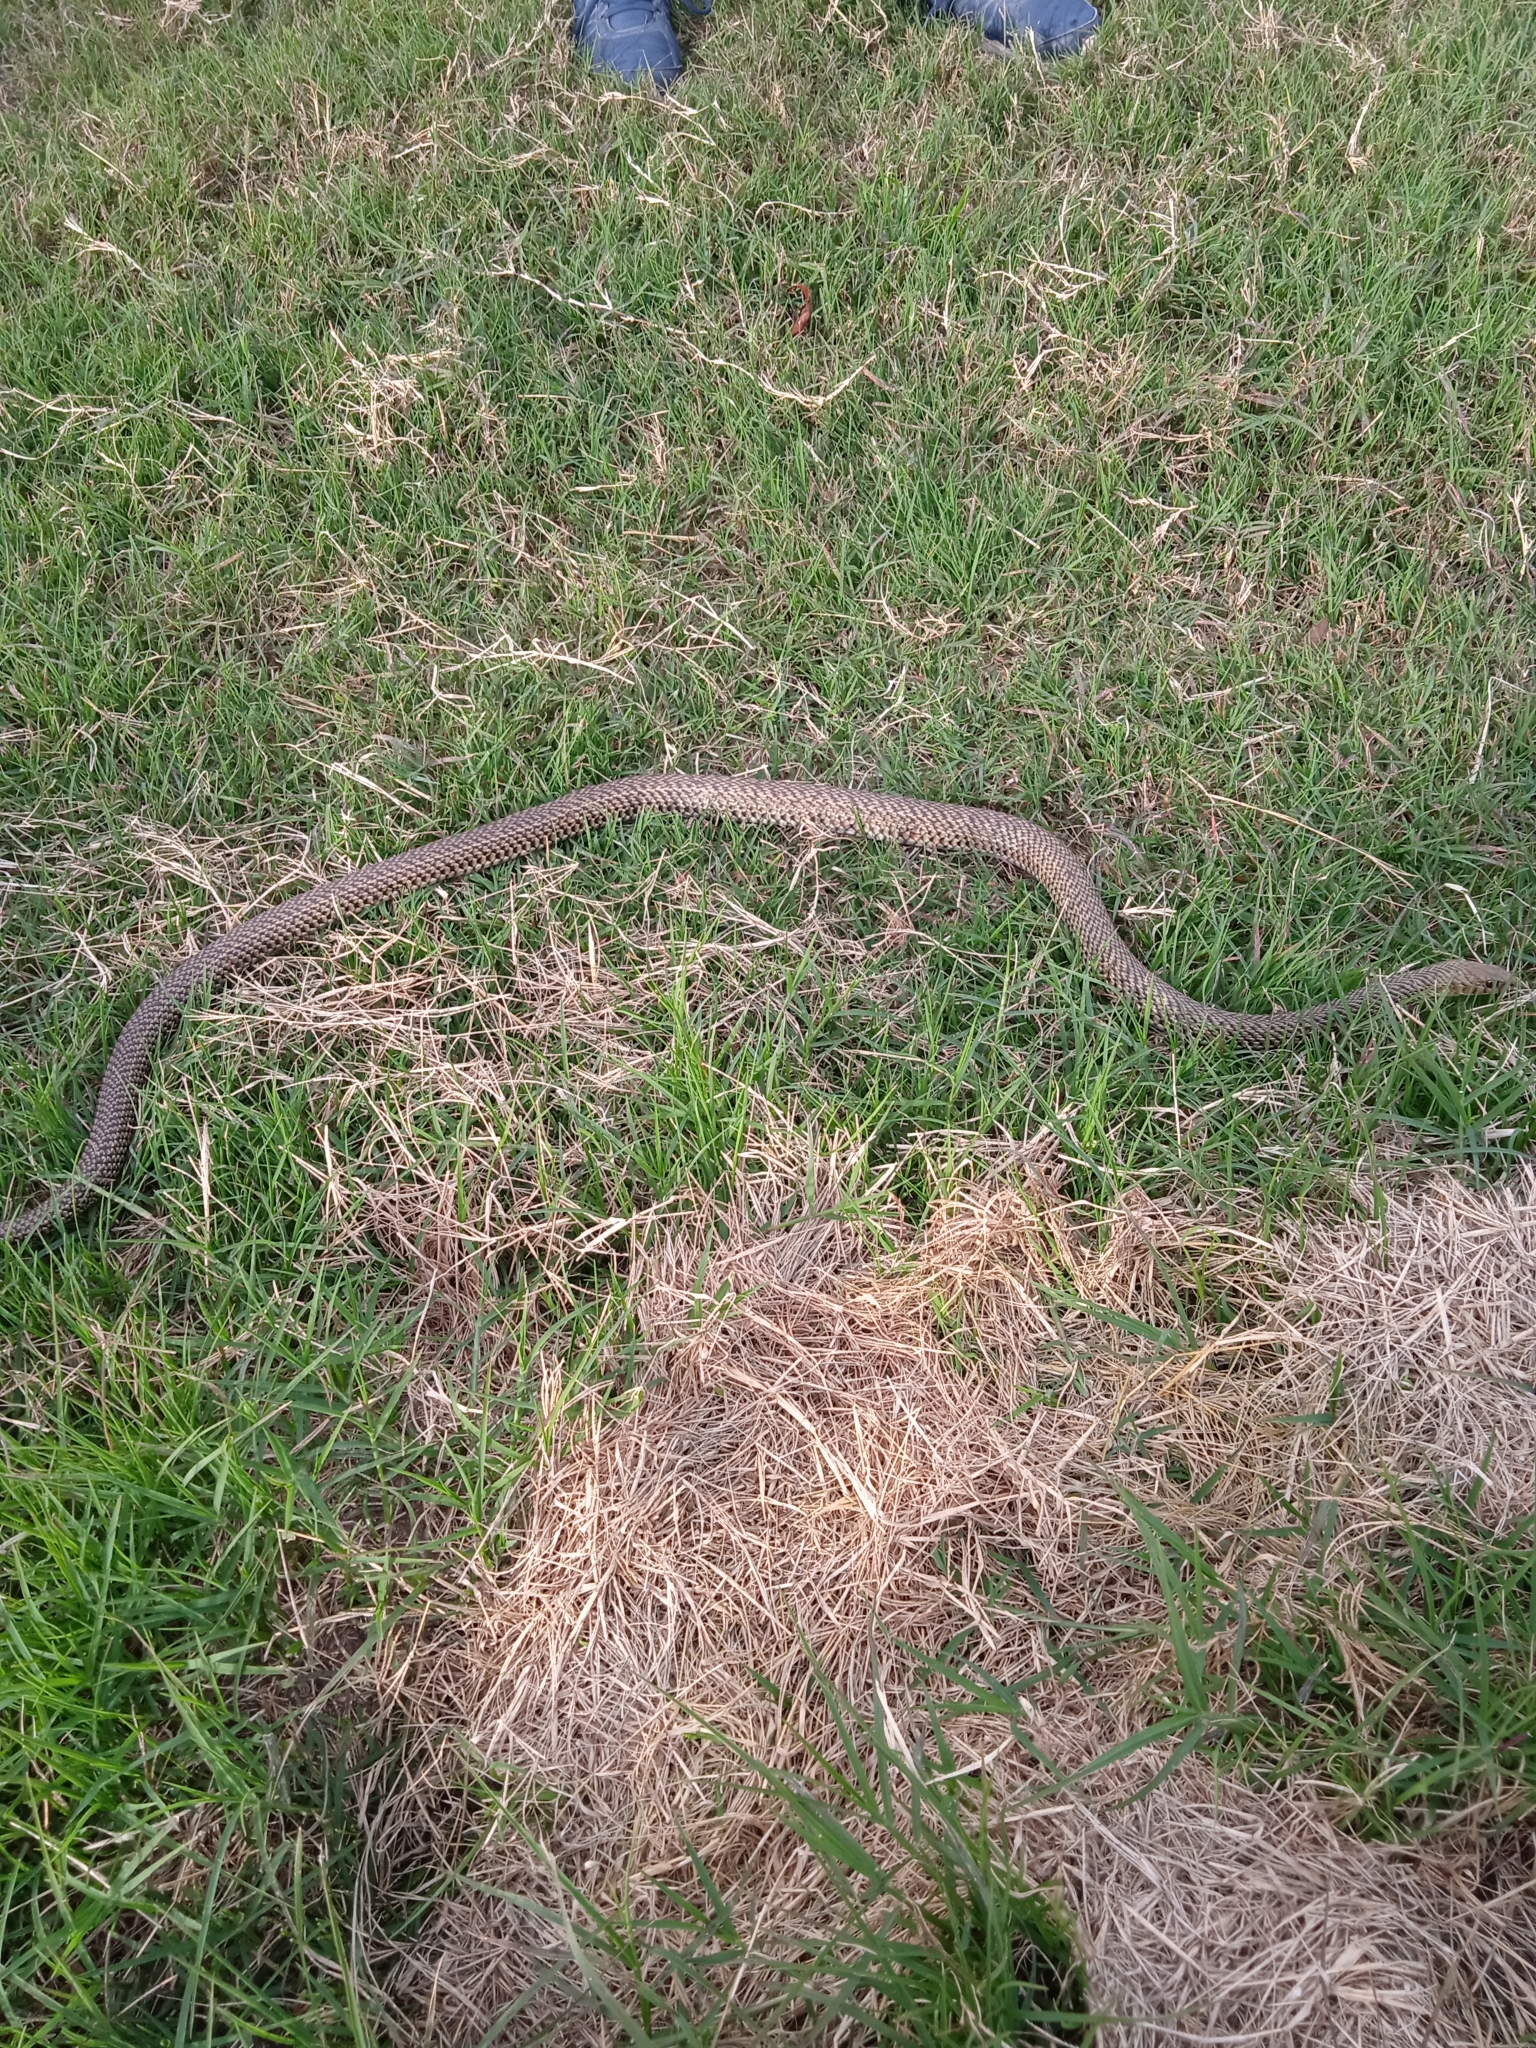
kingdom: Animalia
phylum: Chordata
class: Squamata
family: Colubridae
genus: Philodryas
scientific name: Philodryas patagoniensis
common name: Patagonia green racer
